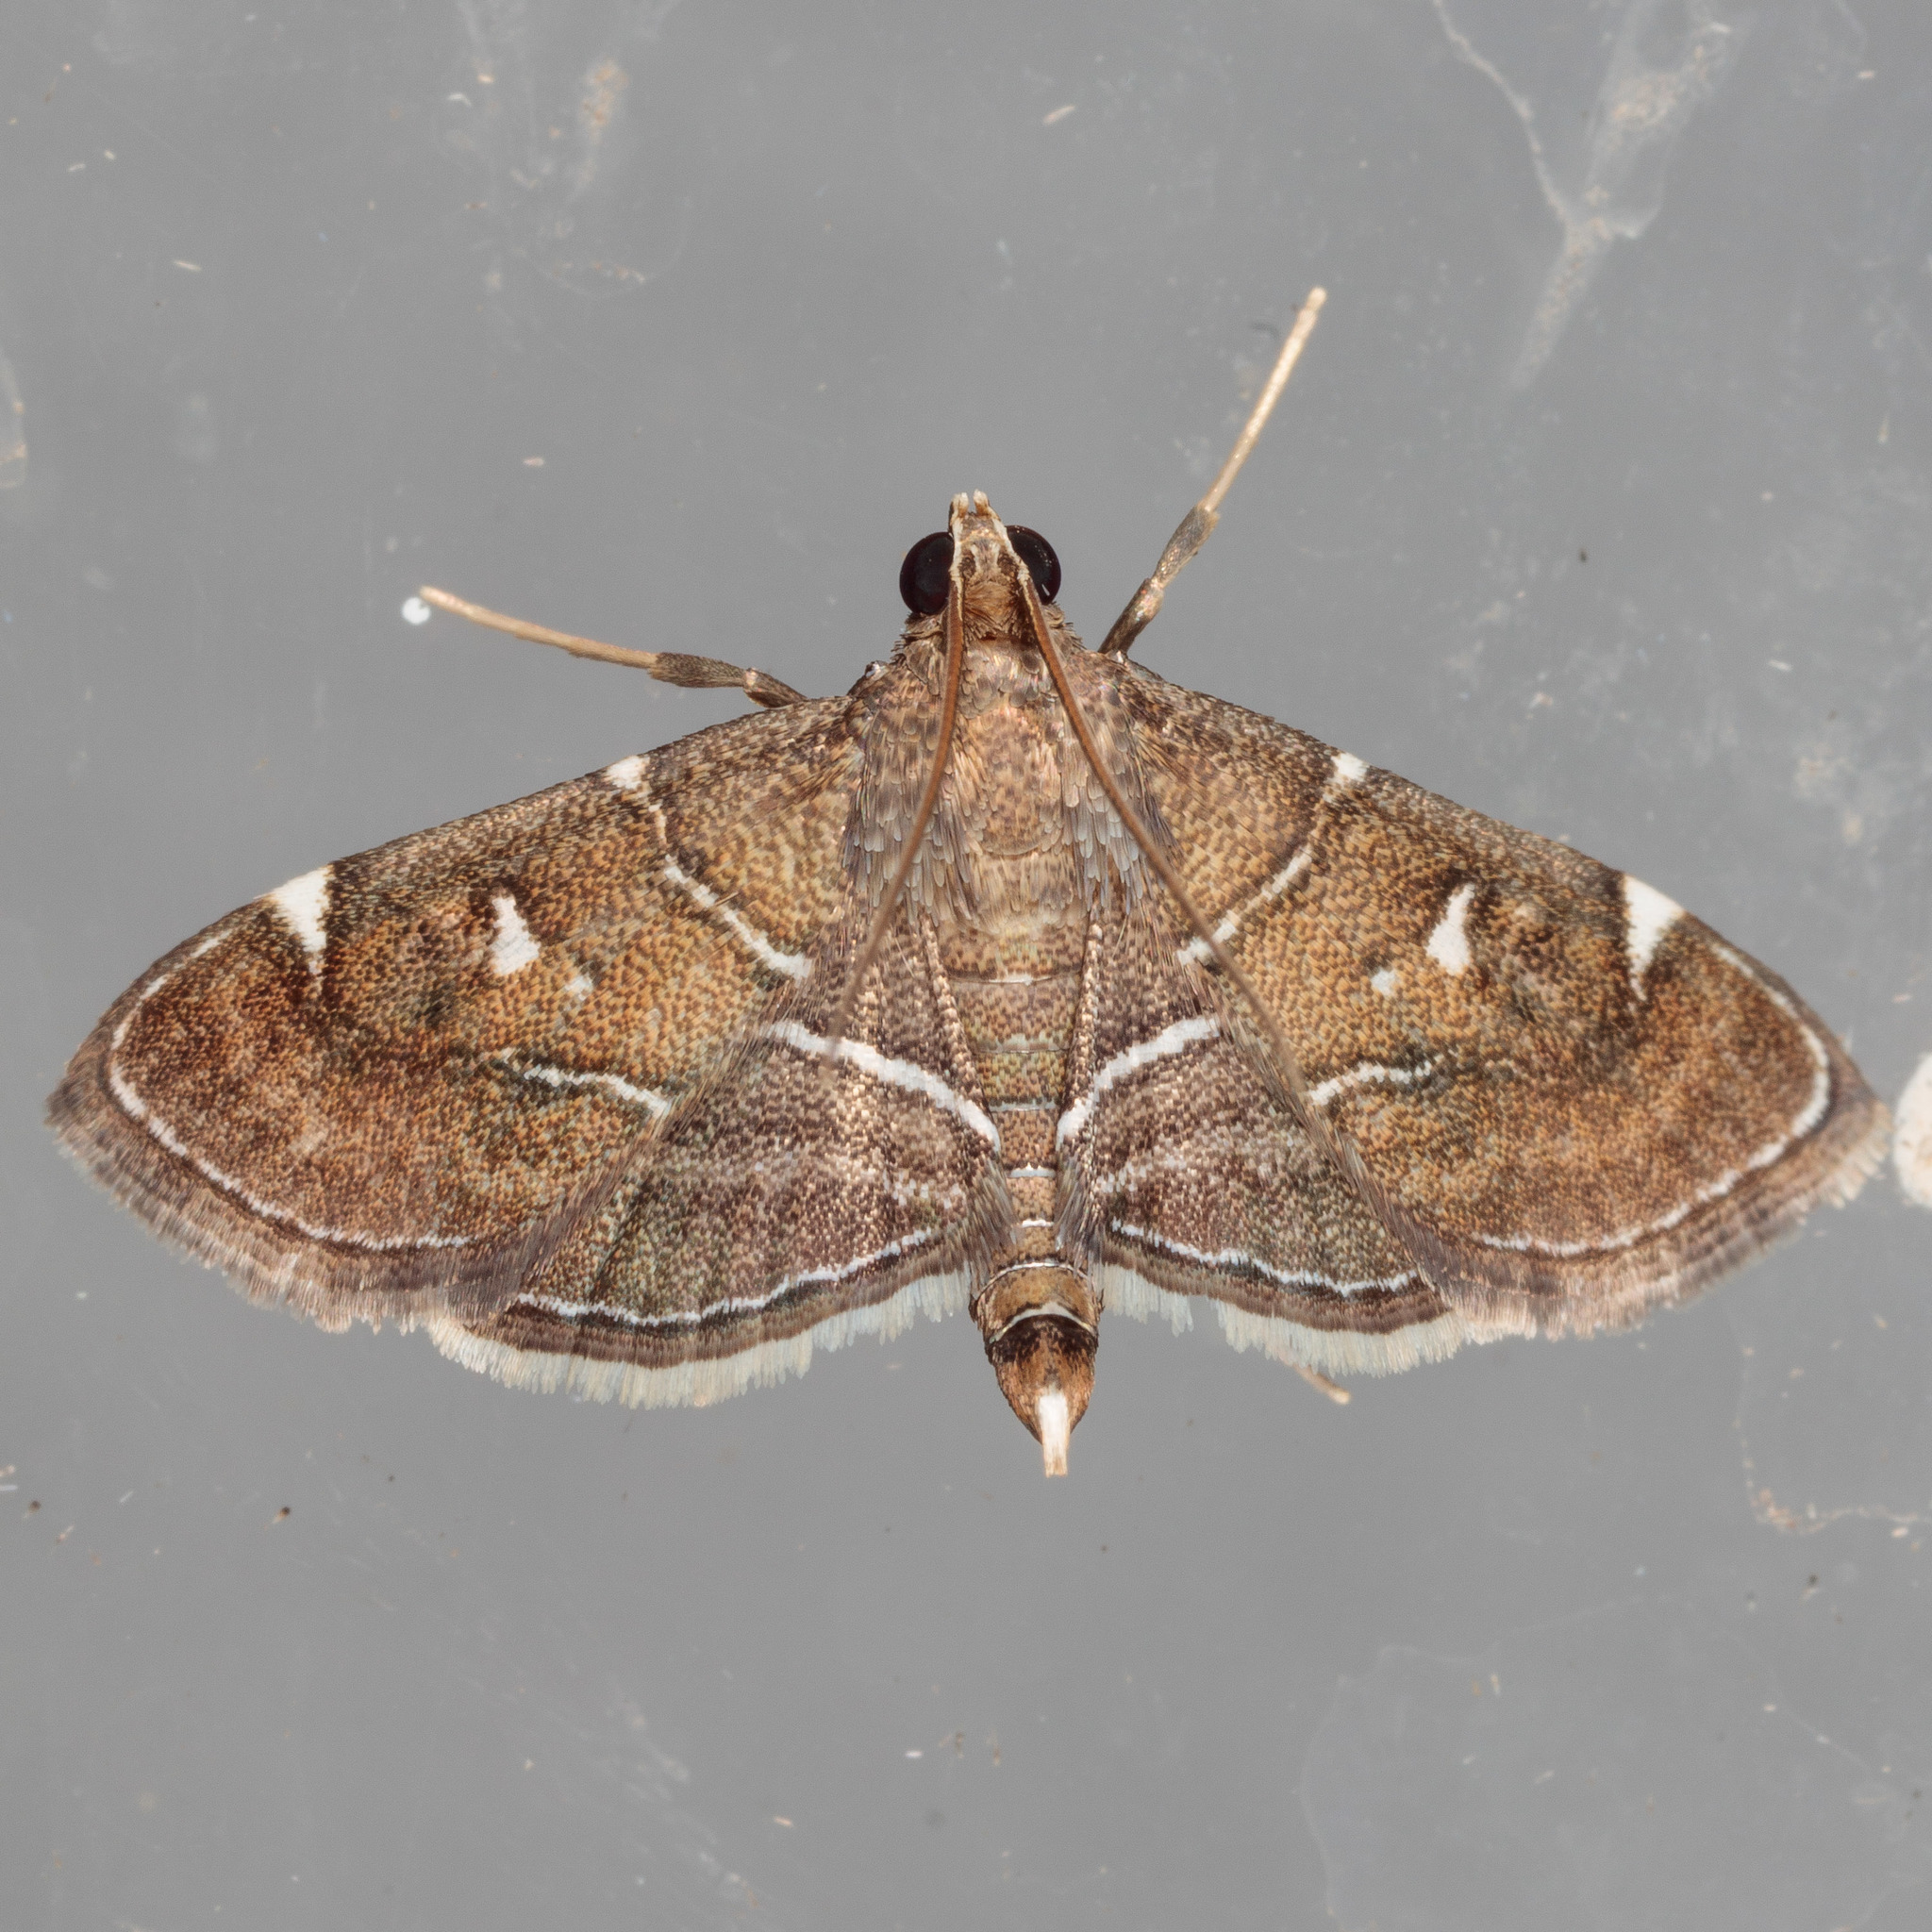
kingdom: Animalia
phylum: Arthropoda
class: Insecta
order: Lepidoptera
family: Crambidae
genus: Lamprosema
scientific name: Lamprosema victoriae
